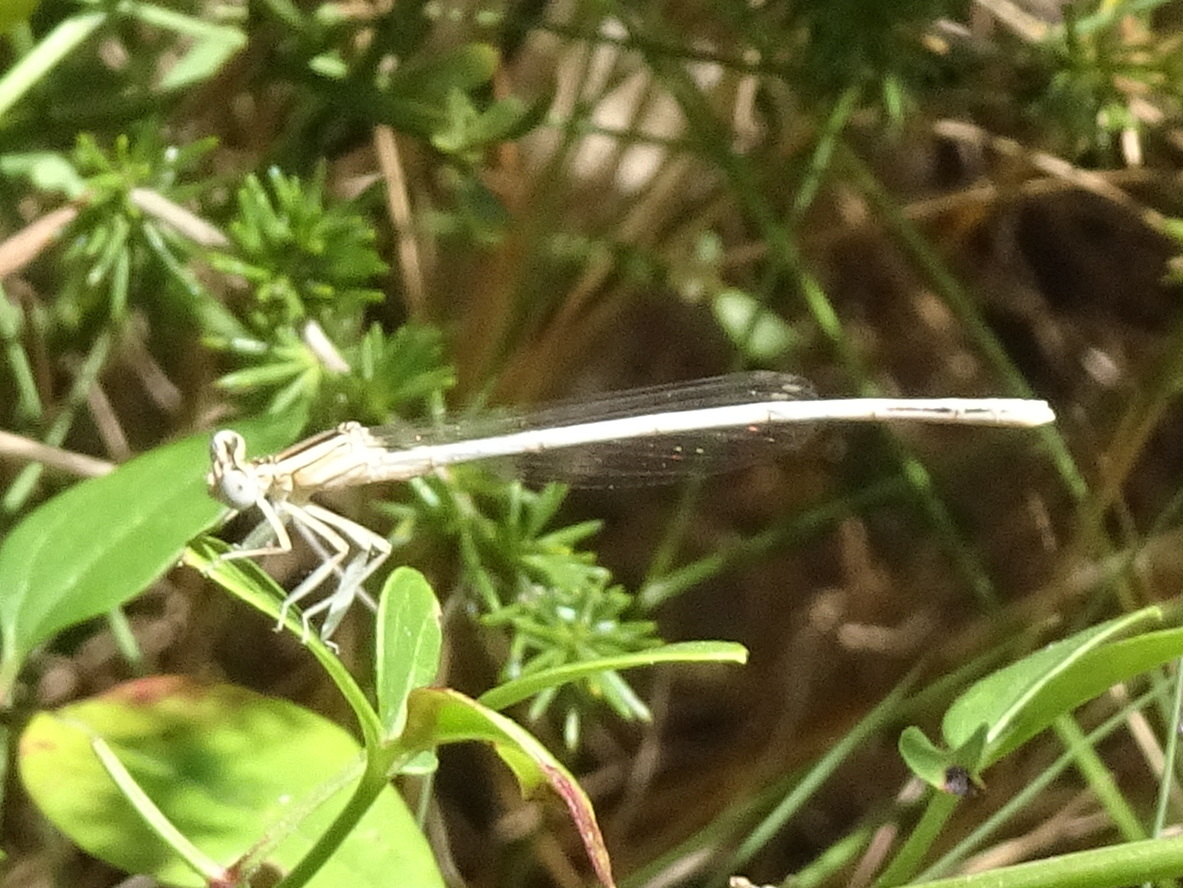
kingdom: Animalia
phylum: Arthropoda
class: Insecta
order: Odonata
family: Platycnemididae
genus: Platycnemis
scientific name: Platycnemis latipes
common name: White featherleg
